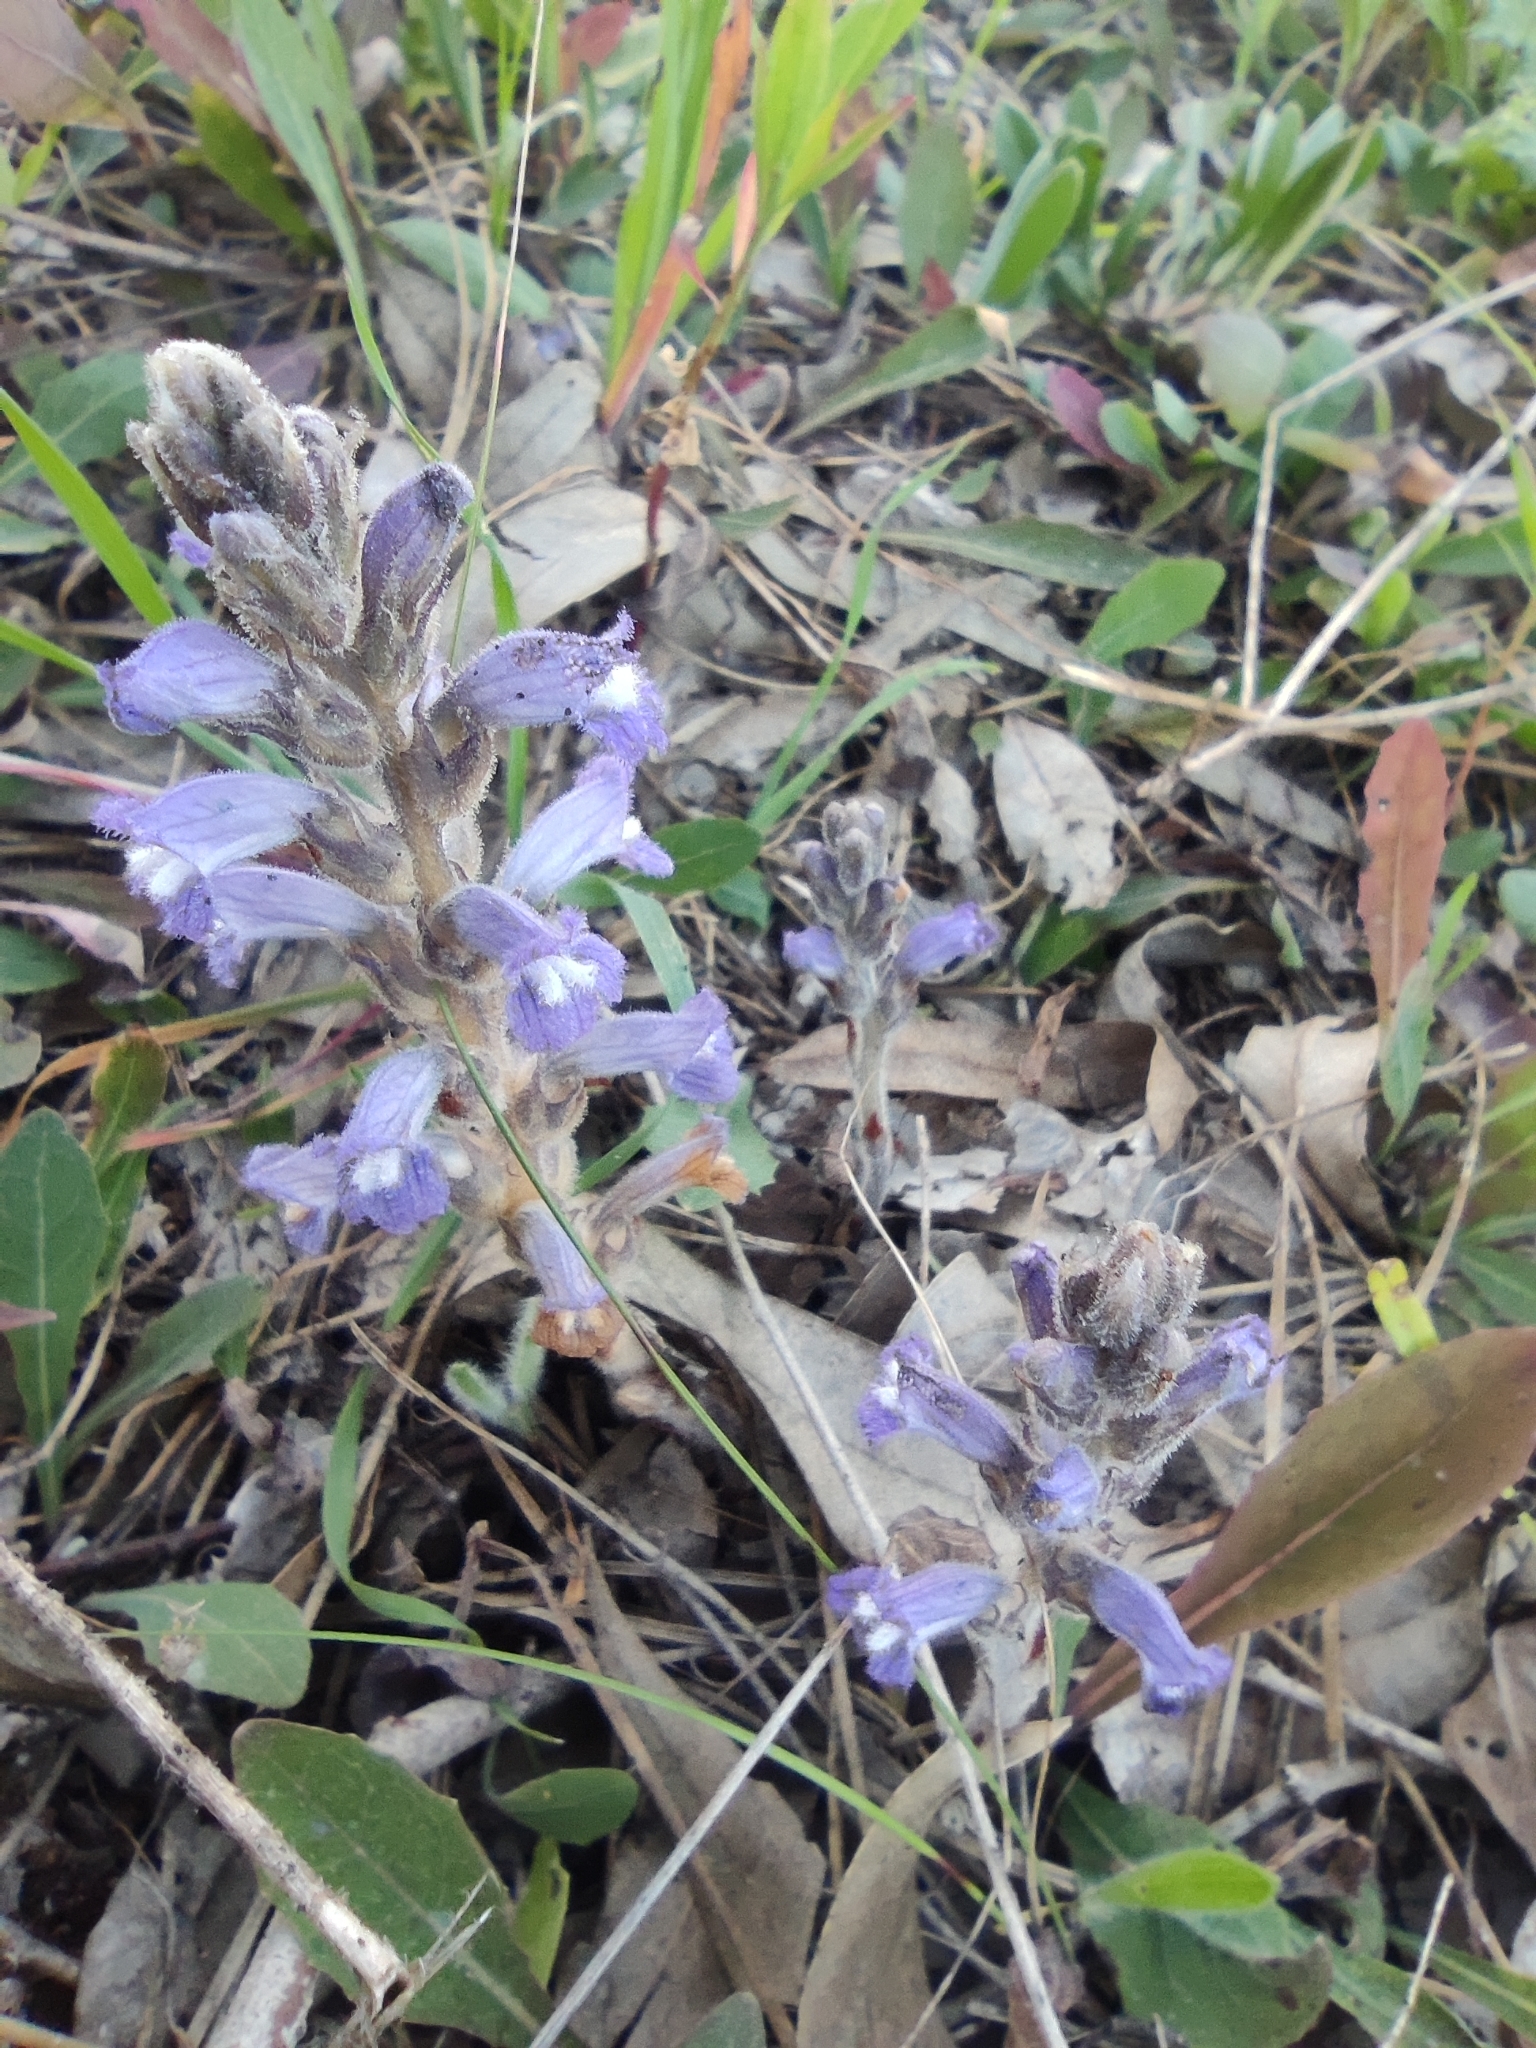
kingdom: Plantae
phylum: Tracheophyta
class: Magnoliopsida
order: Lamiales
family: Orobanchaceae
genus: Phelipanche
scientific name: Phelipanche mutelii
